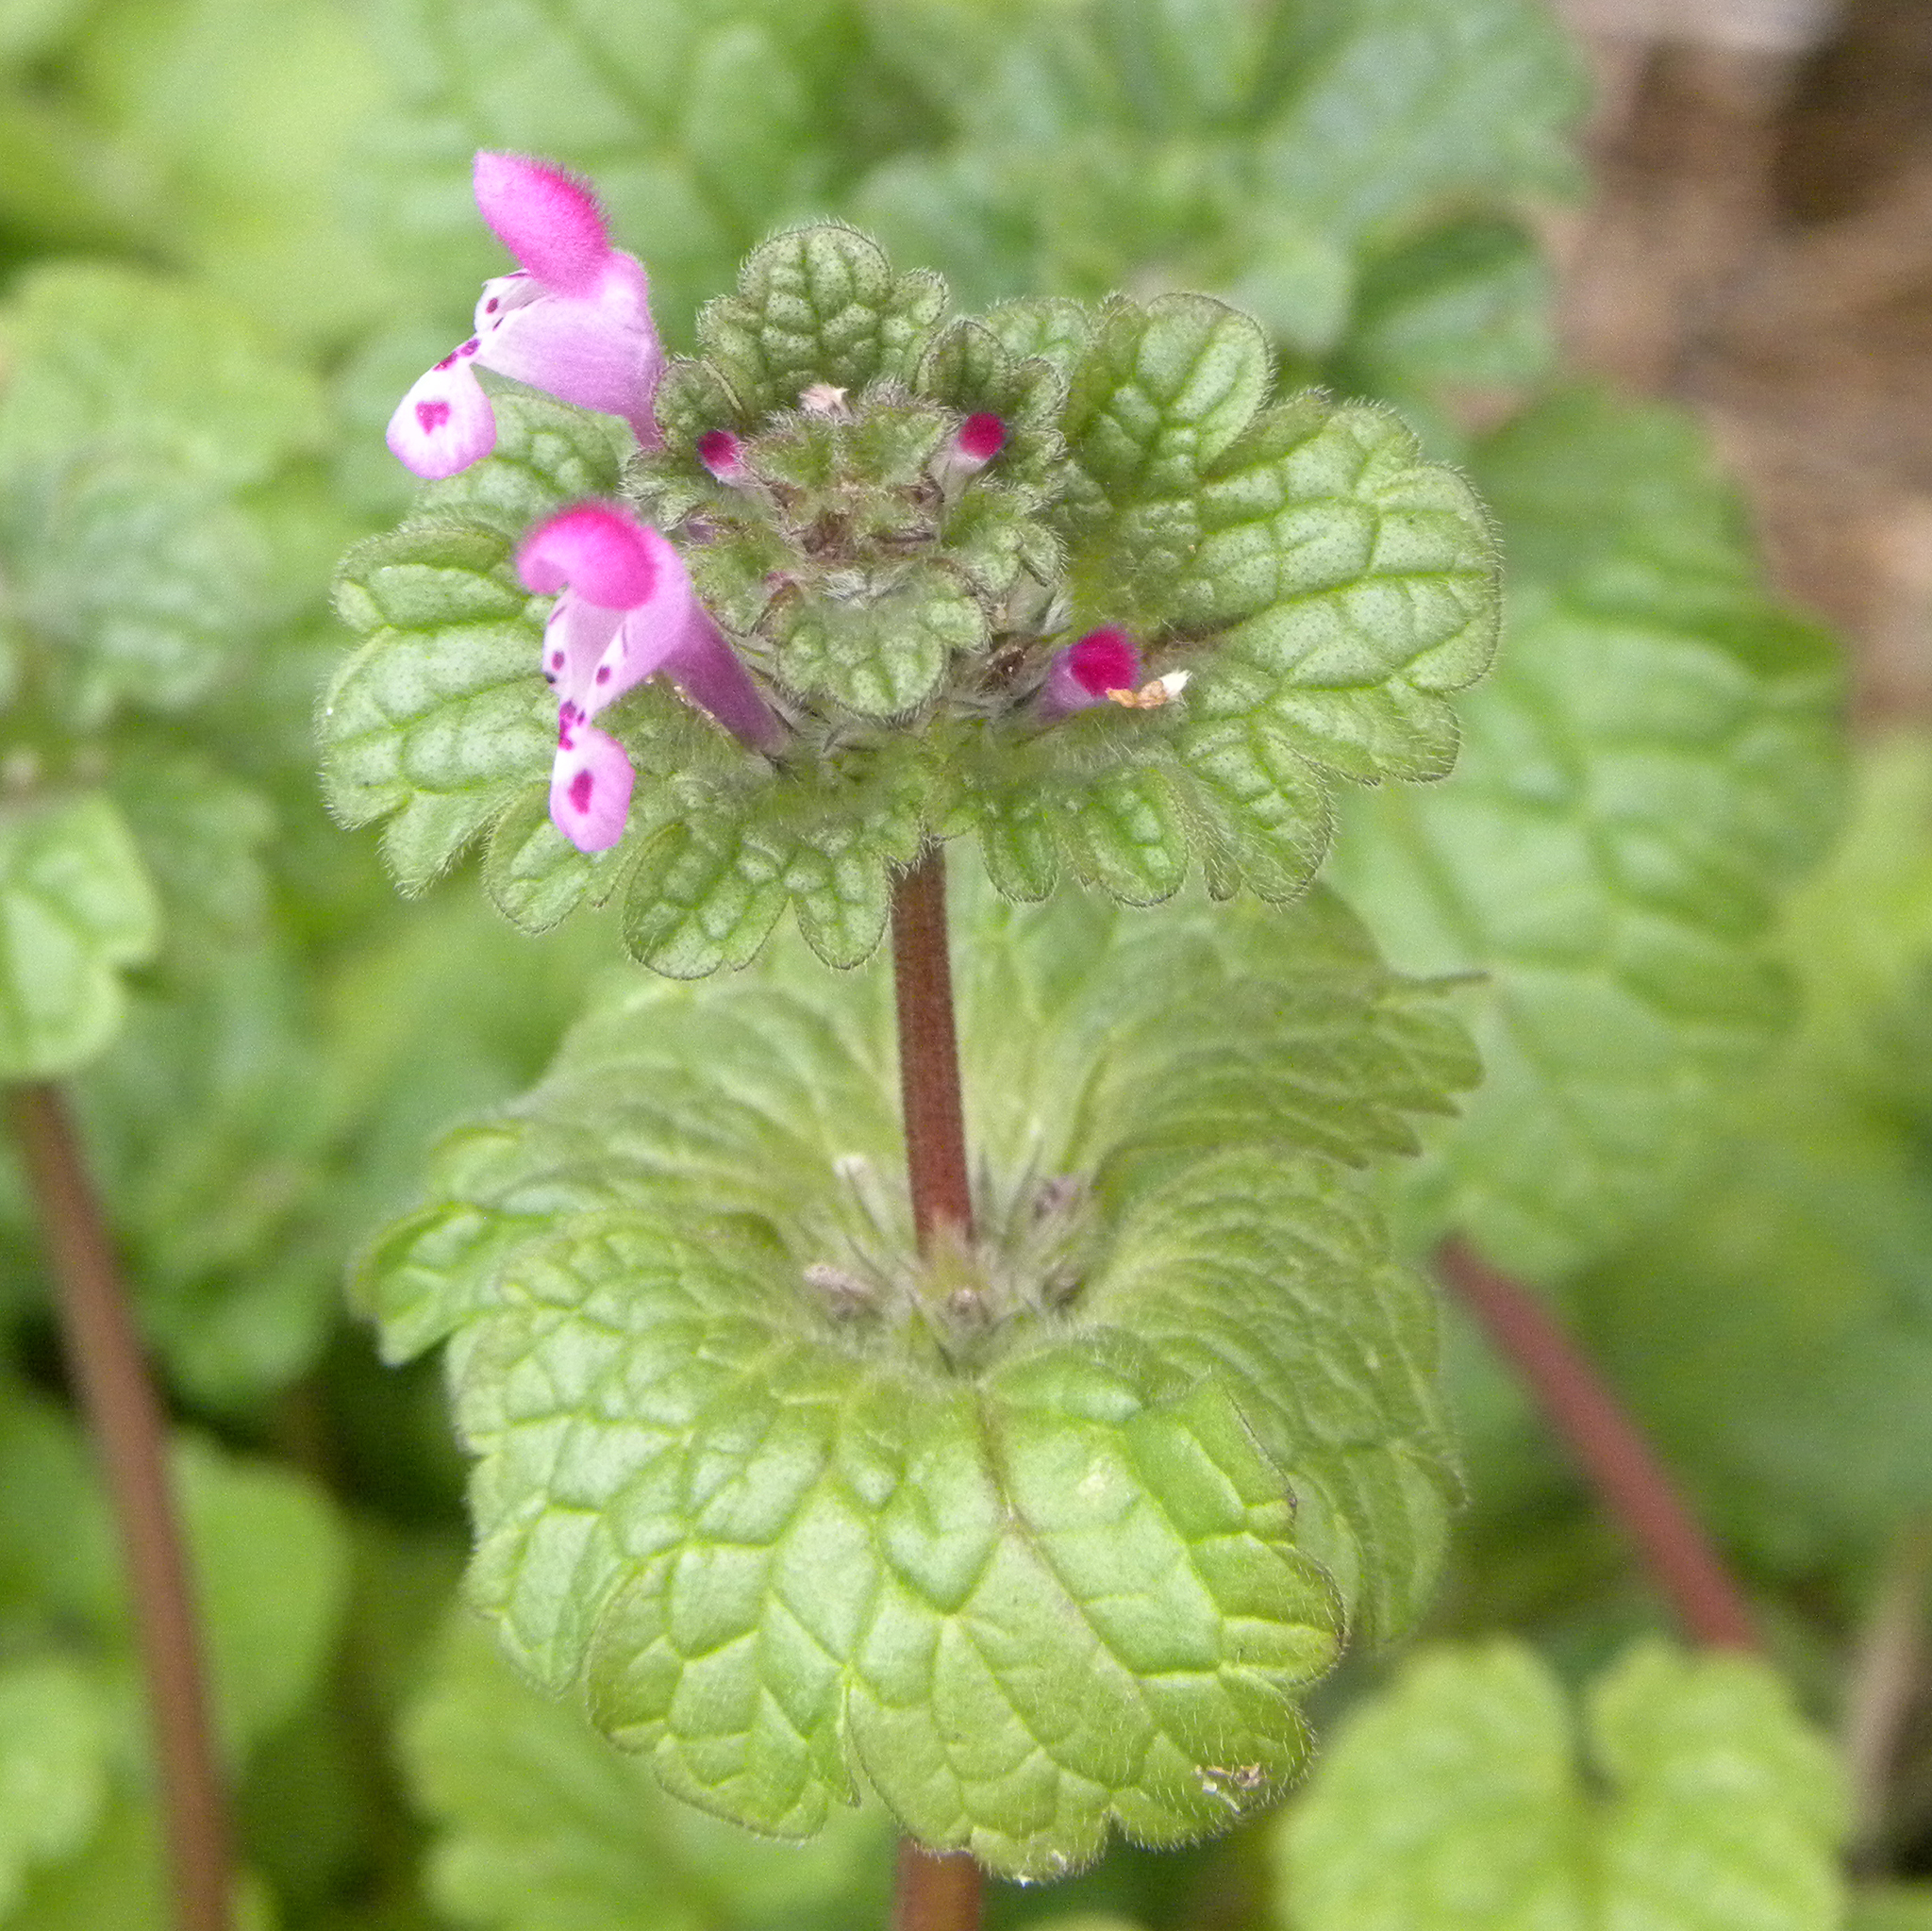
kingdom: Plantae
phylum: Tracheophyta
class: Magnoliopsida
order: Lamiales
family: Lamiaceae
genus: Lamium
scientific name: Lamium amplexicaule
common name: Henbit dead-nettle
